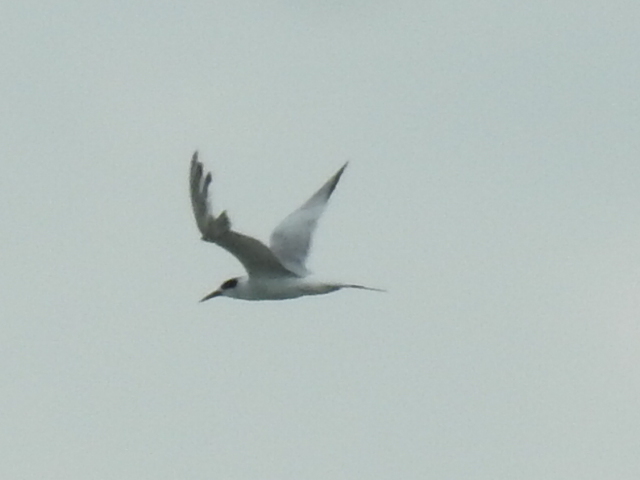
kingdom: Animalia
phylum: Chordata
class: Aves
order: Charadriiformes
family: Laridae
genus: Sterna
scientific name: Sterna forsteri
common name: Forster's tern
